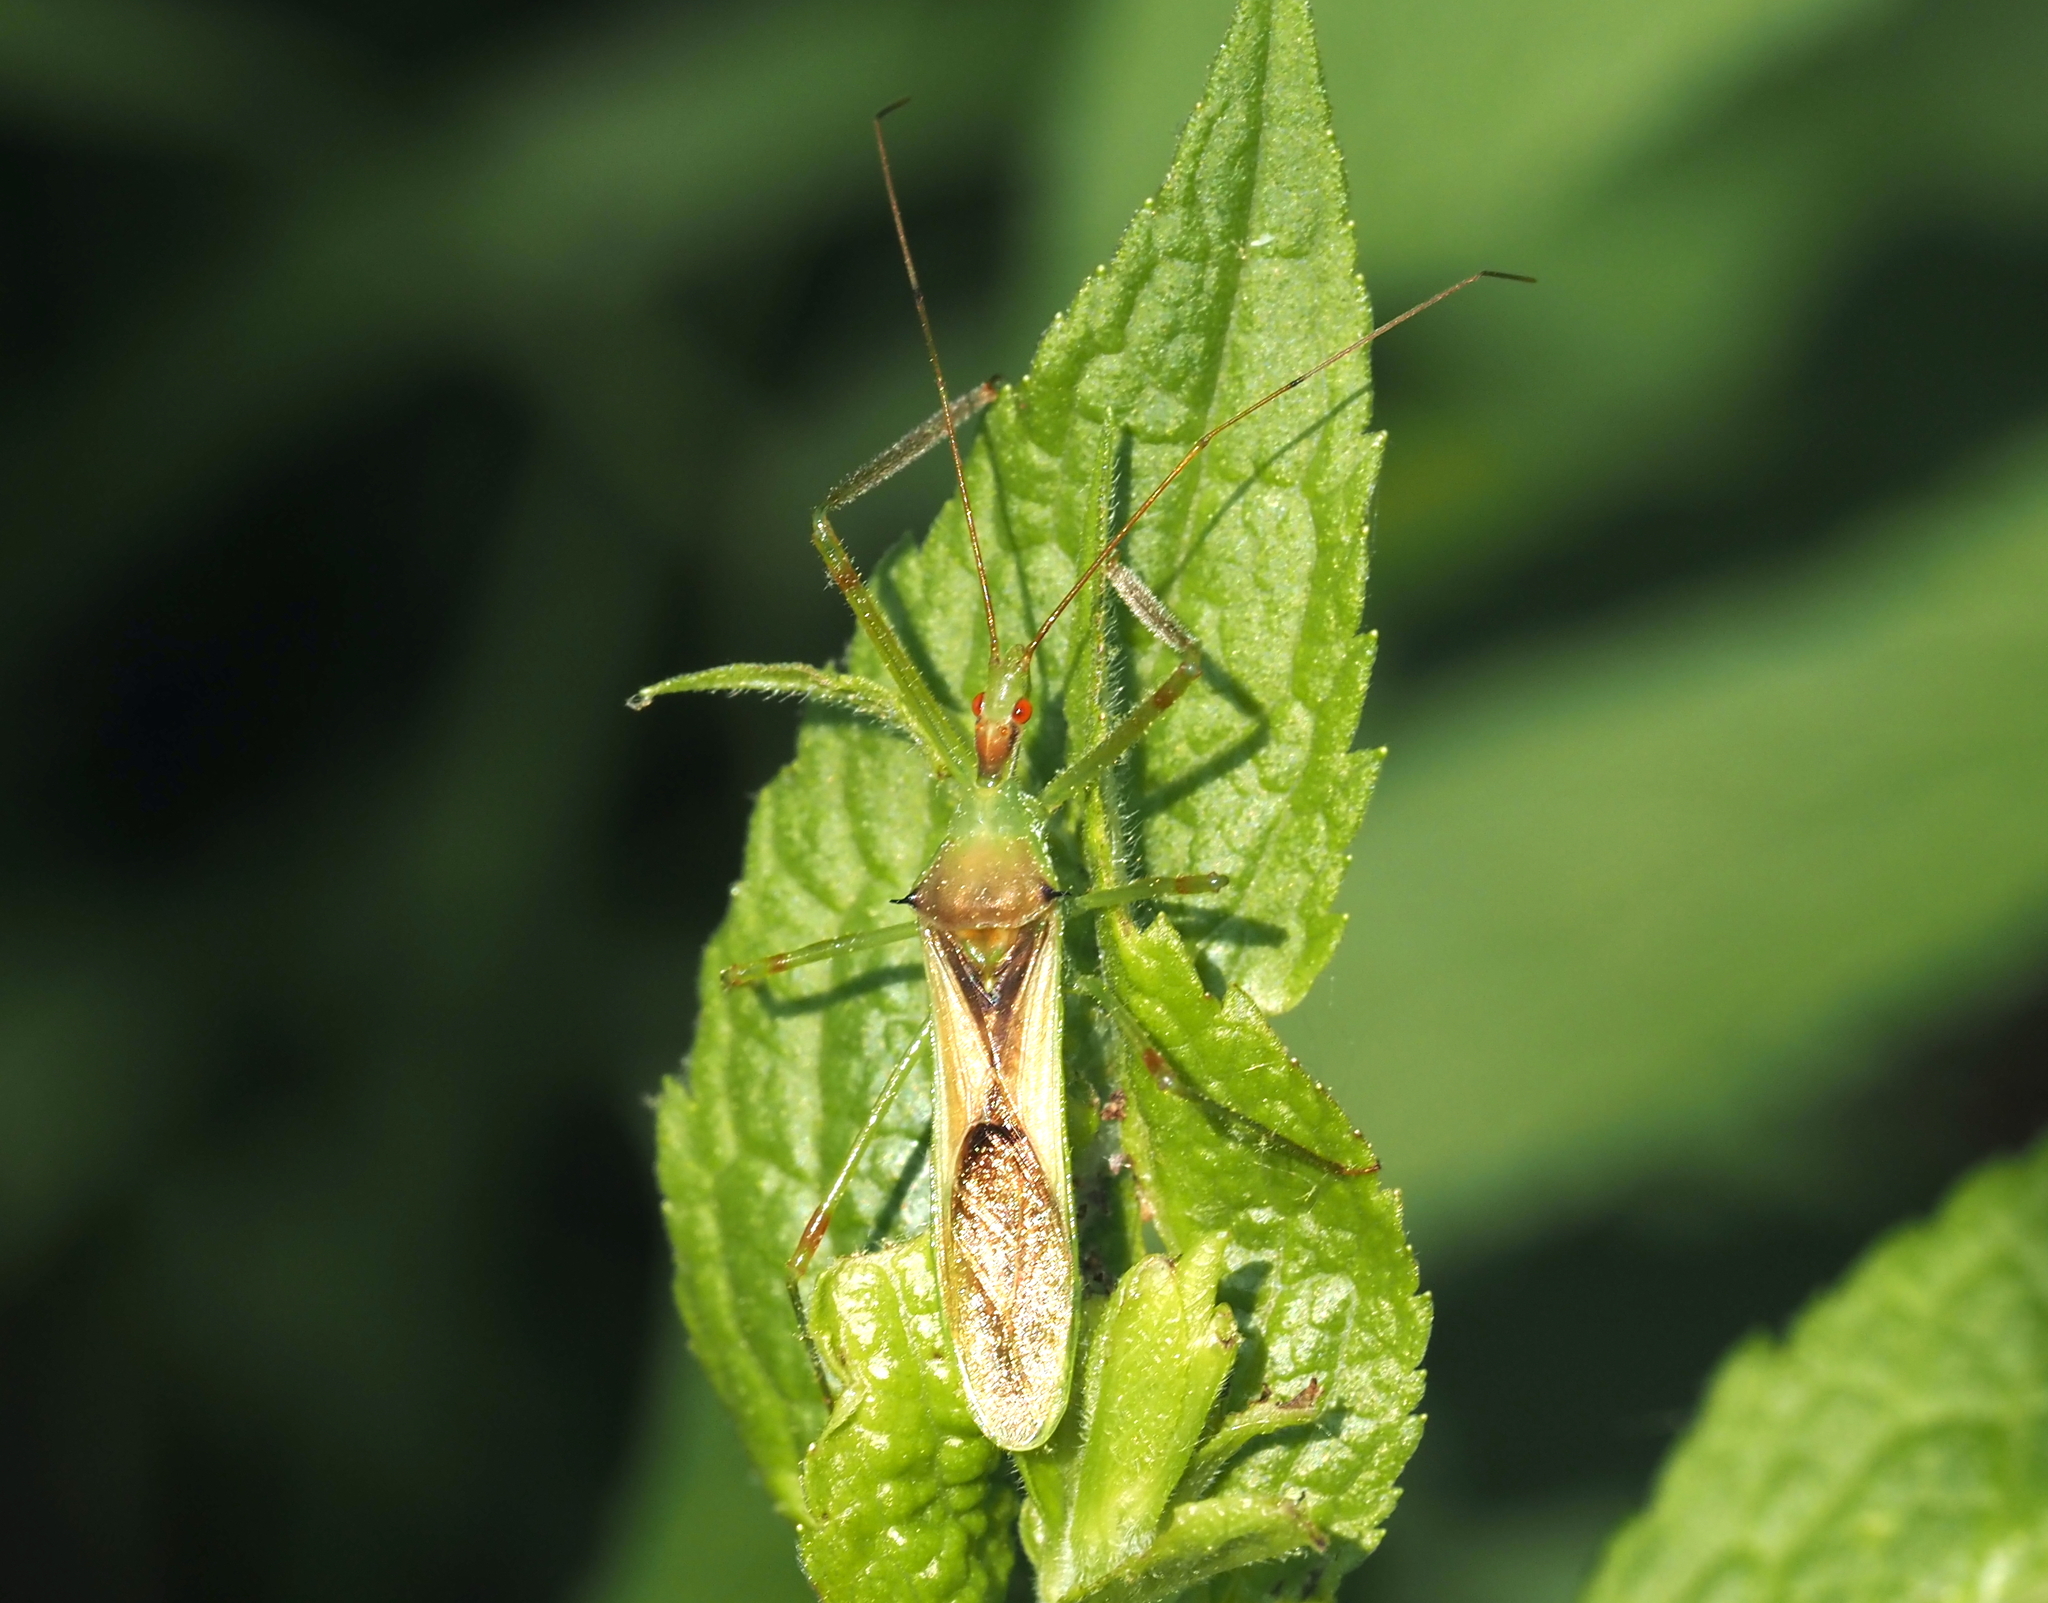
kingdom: Animalia
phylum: Arthropoda
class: Insecta
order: Hemiptera
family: Reduviidae
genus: Zelus
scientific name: Zelus luridus
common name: Pale green assassin bug
